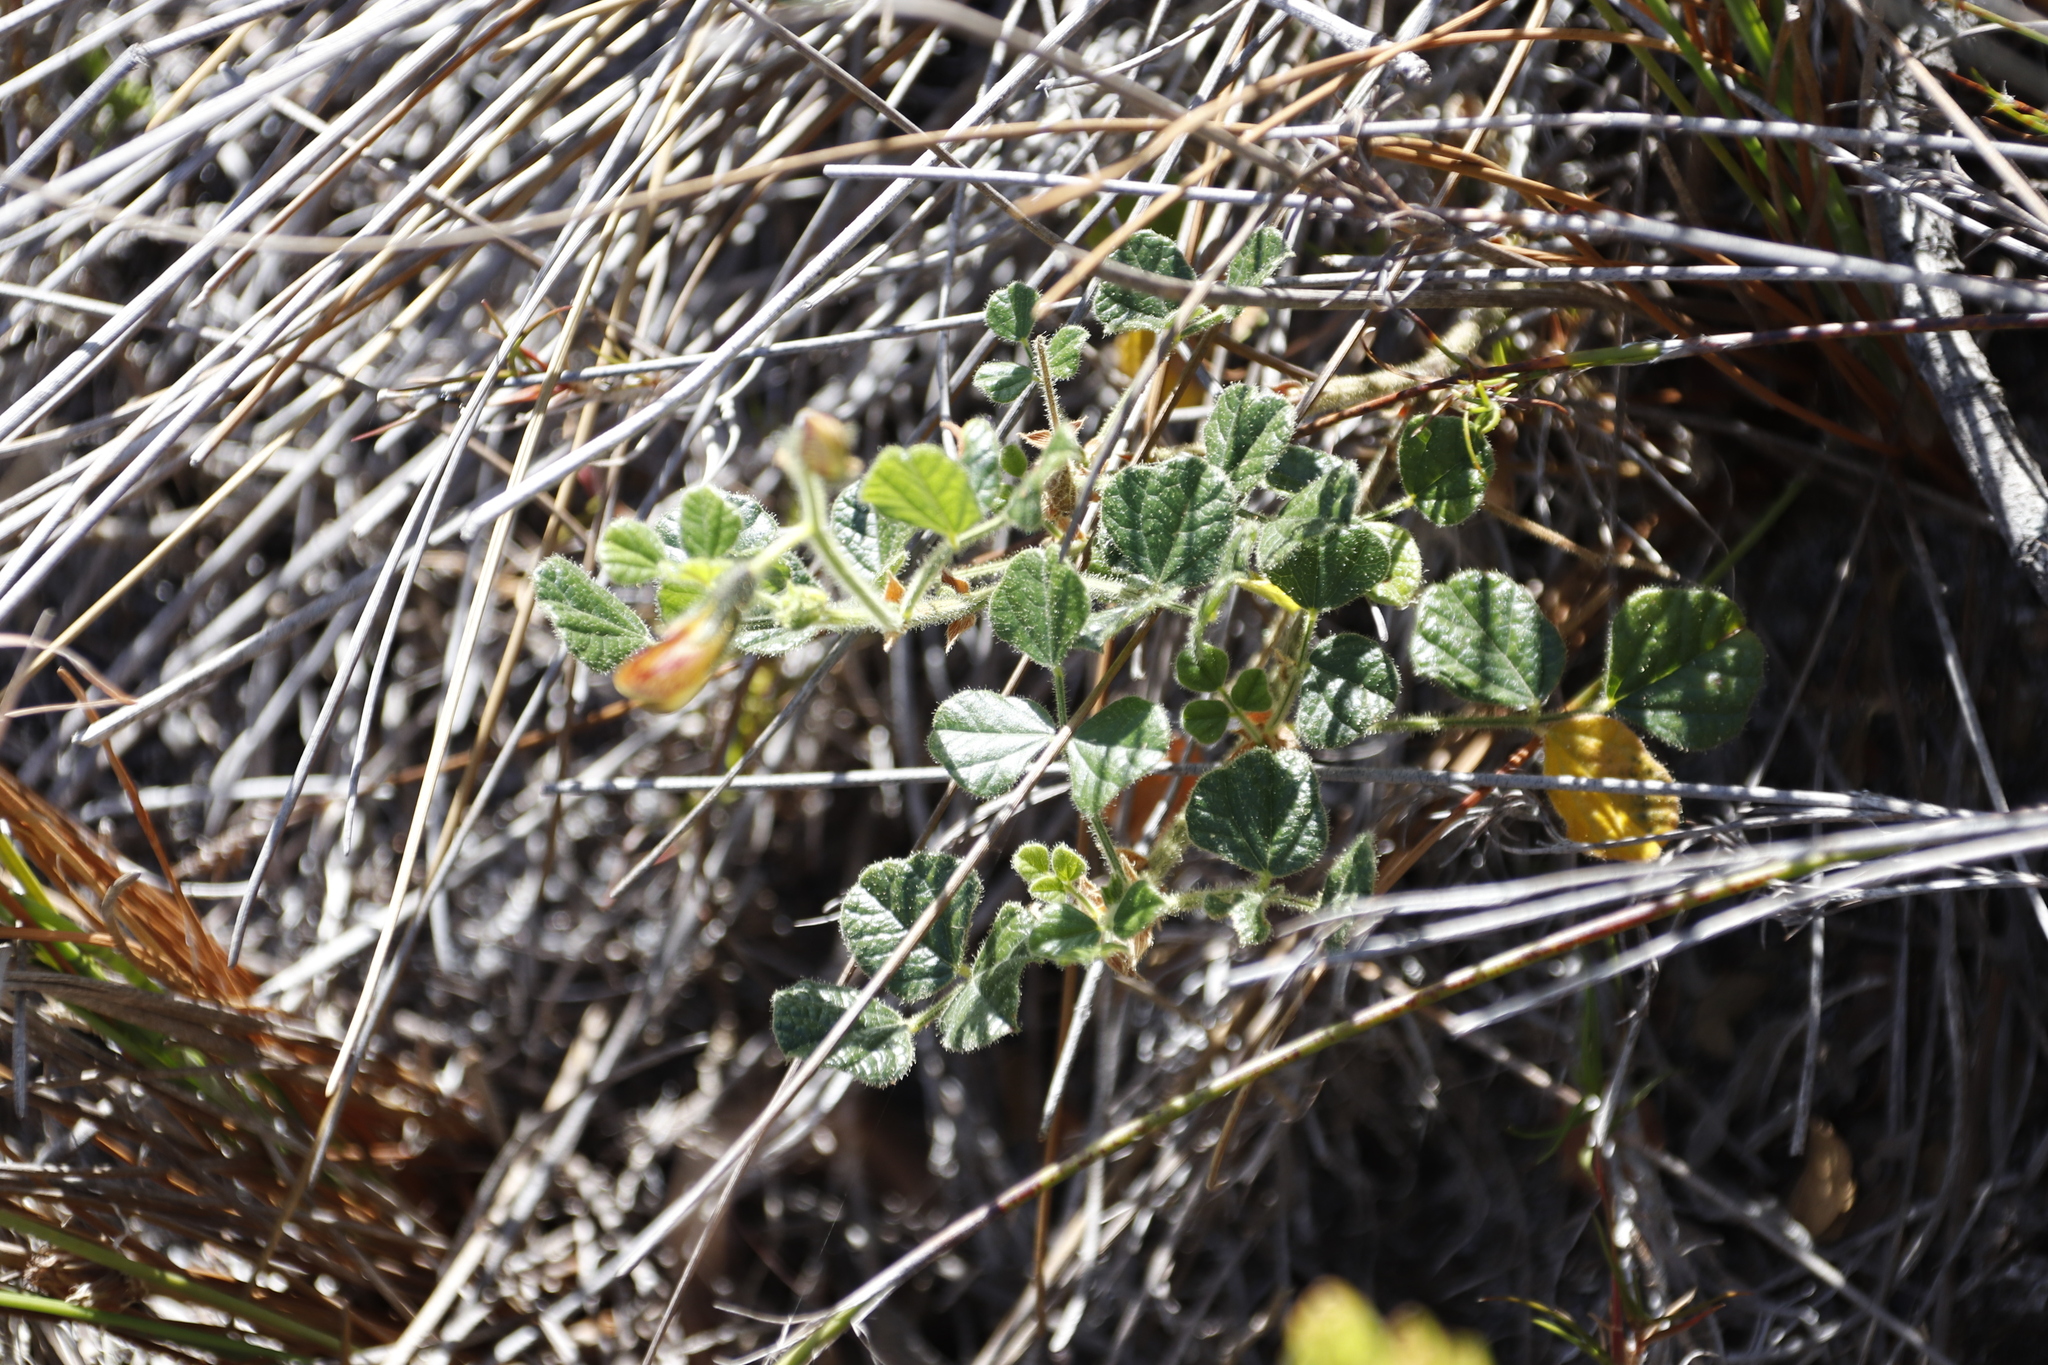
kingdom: Plantae
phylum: Tracheophyta
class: Magnoliopsida
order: Fabales
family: Fabaceae
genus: Bolusafra
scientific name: Bolusafra bituminosa
